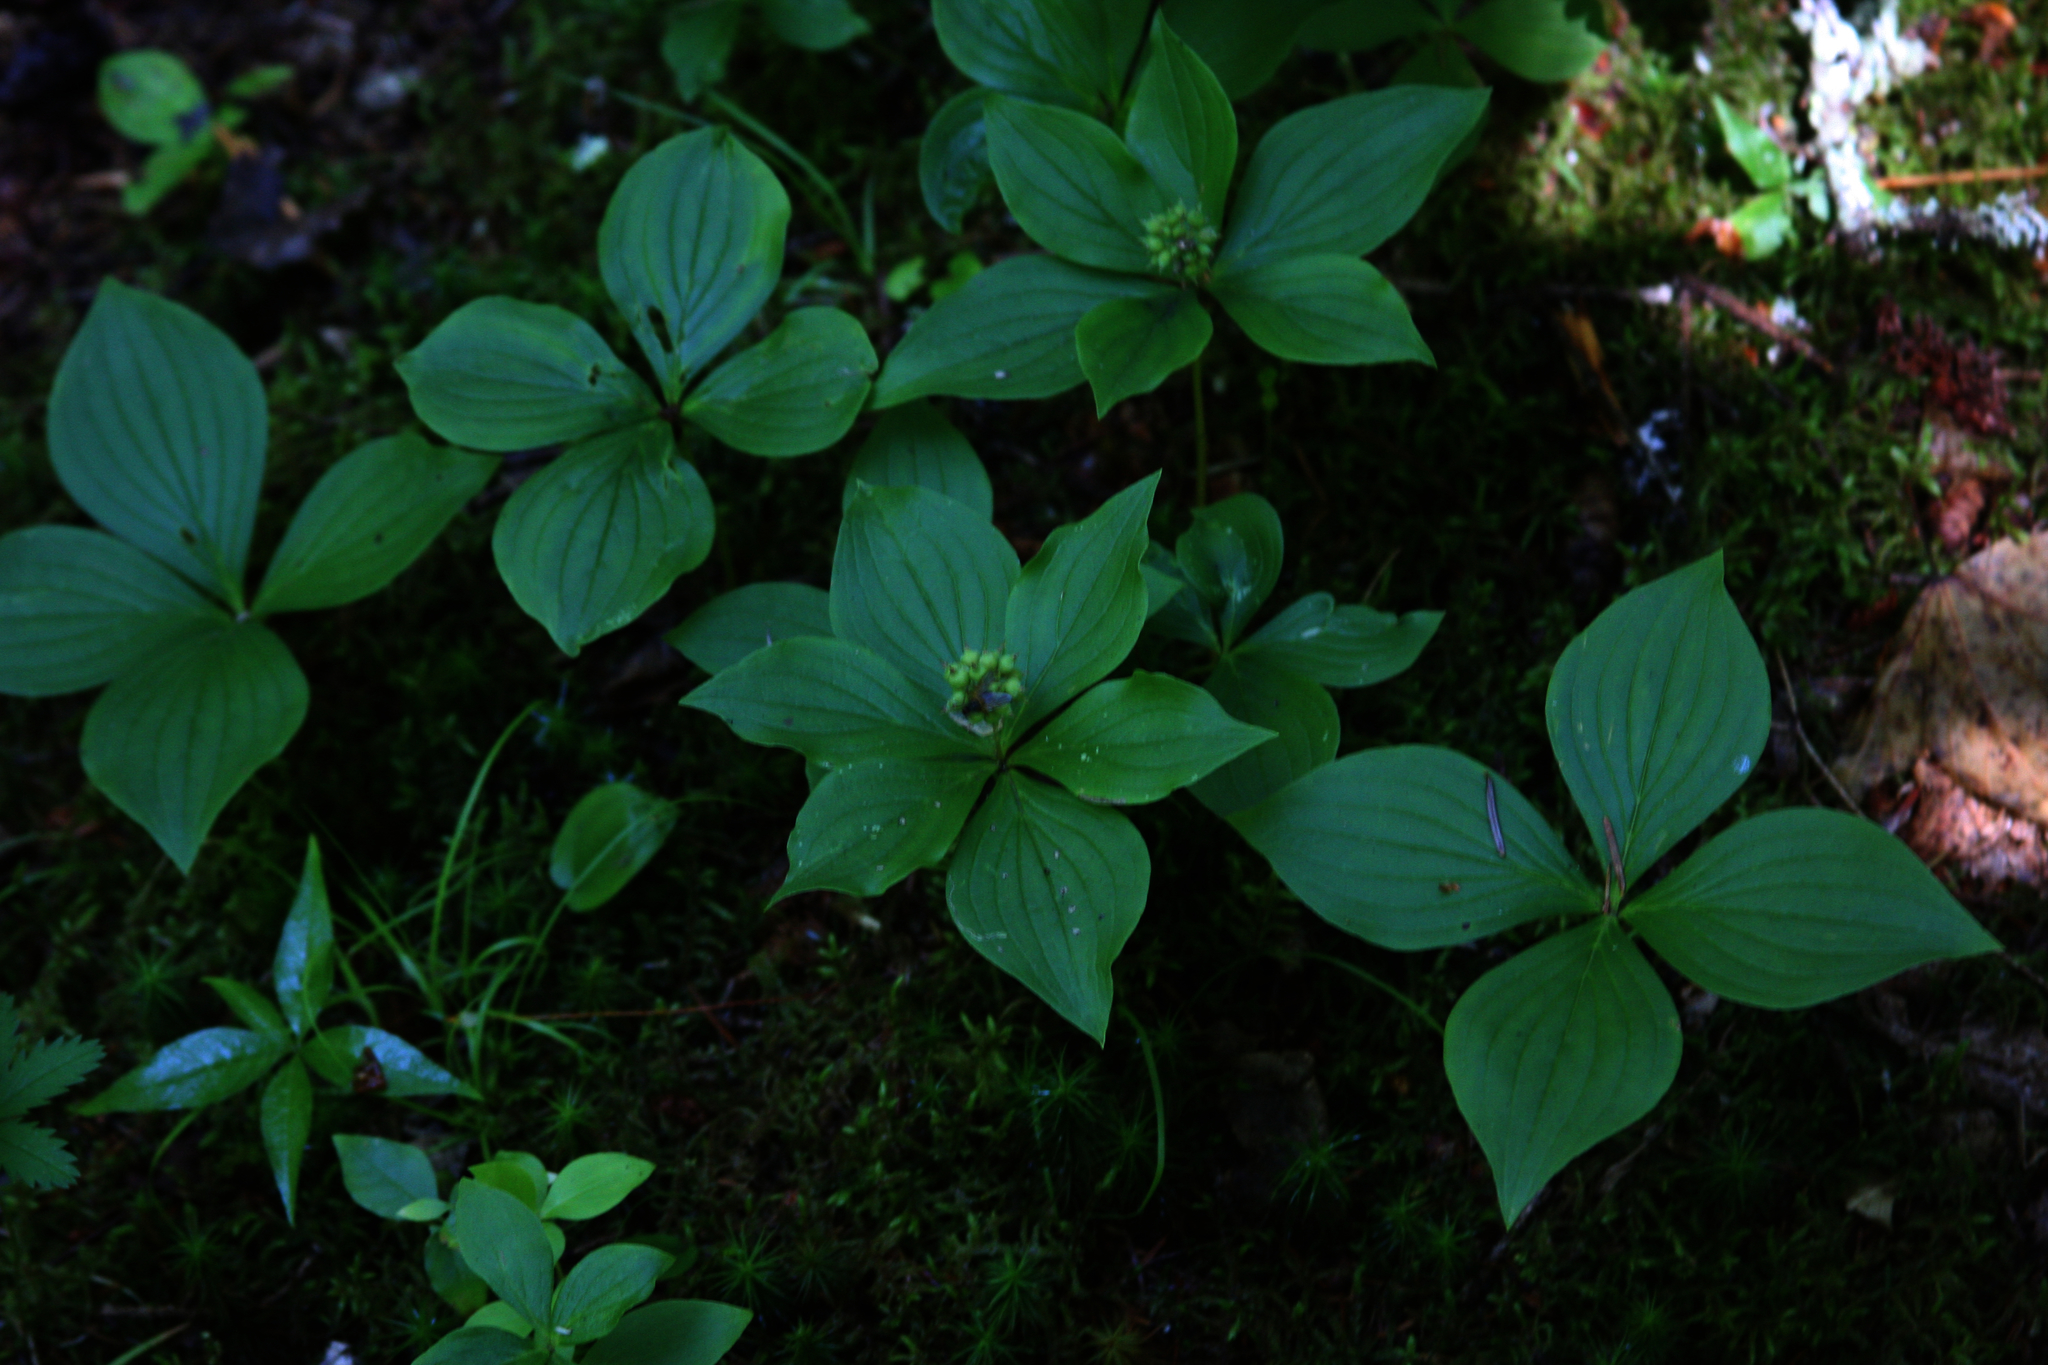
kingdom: Plantae
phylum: Tracheophyta
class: Magnoliopsida
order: Cornales
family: Cornaceae
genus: Cornus
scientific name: Cornus canadensis
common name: Creeping dogwood
